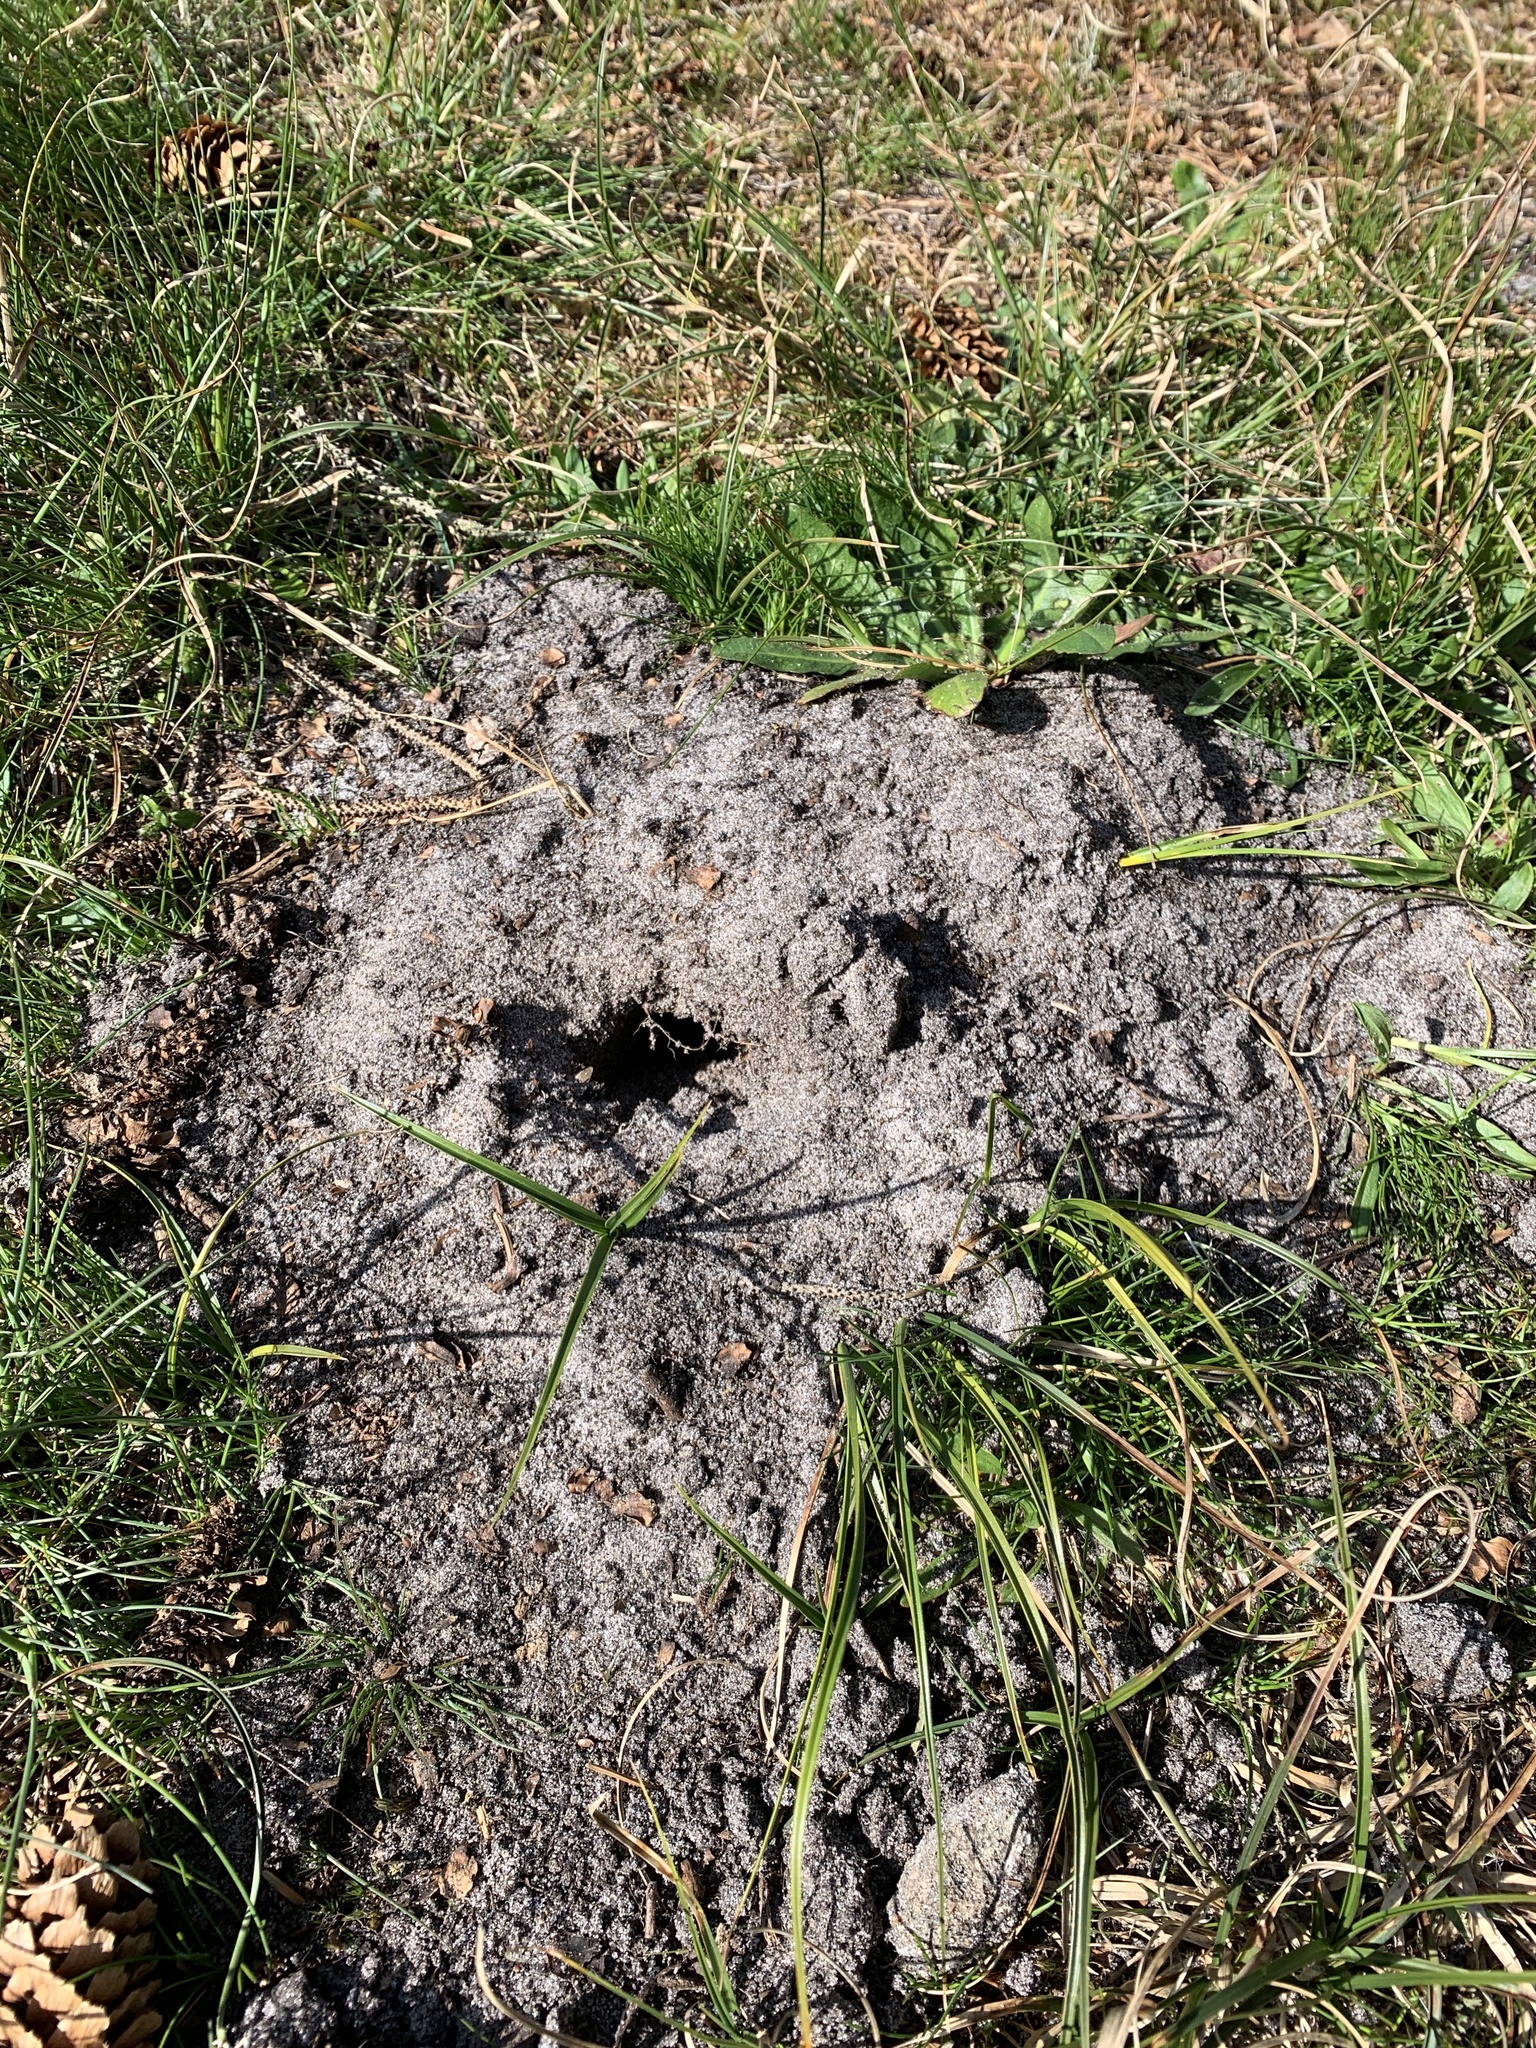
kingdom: Animalia
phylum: Chordata
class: Mammalia
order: Soricomorpha
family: Talpidae
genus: Talpa
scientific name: Talpa europaea
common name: European mole
